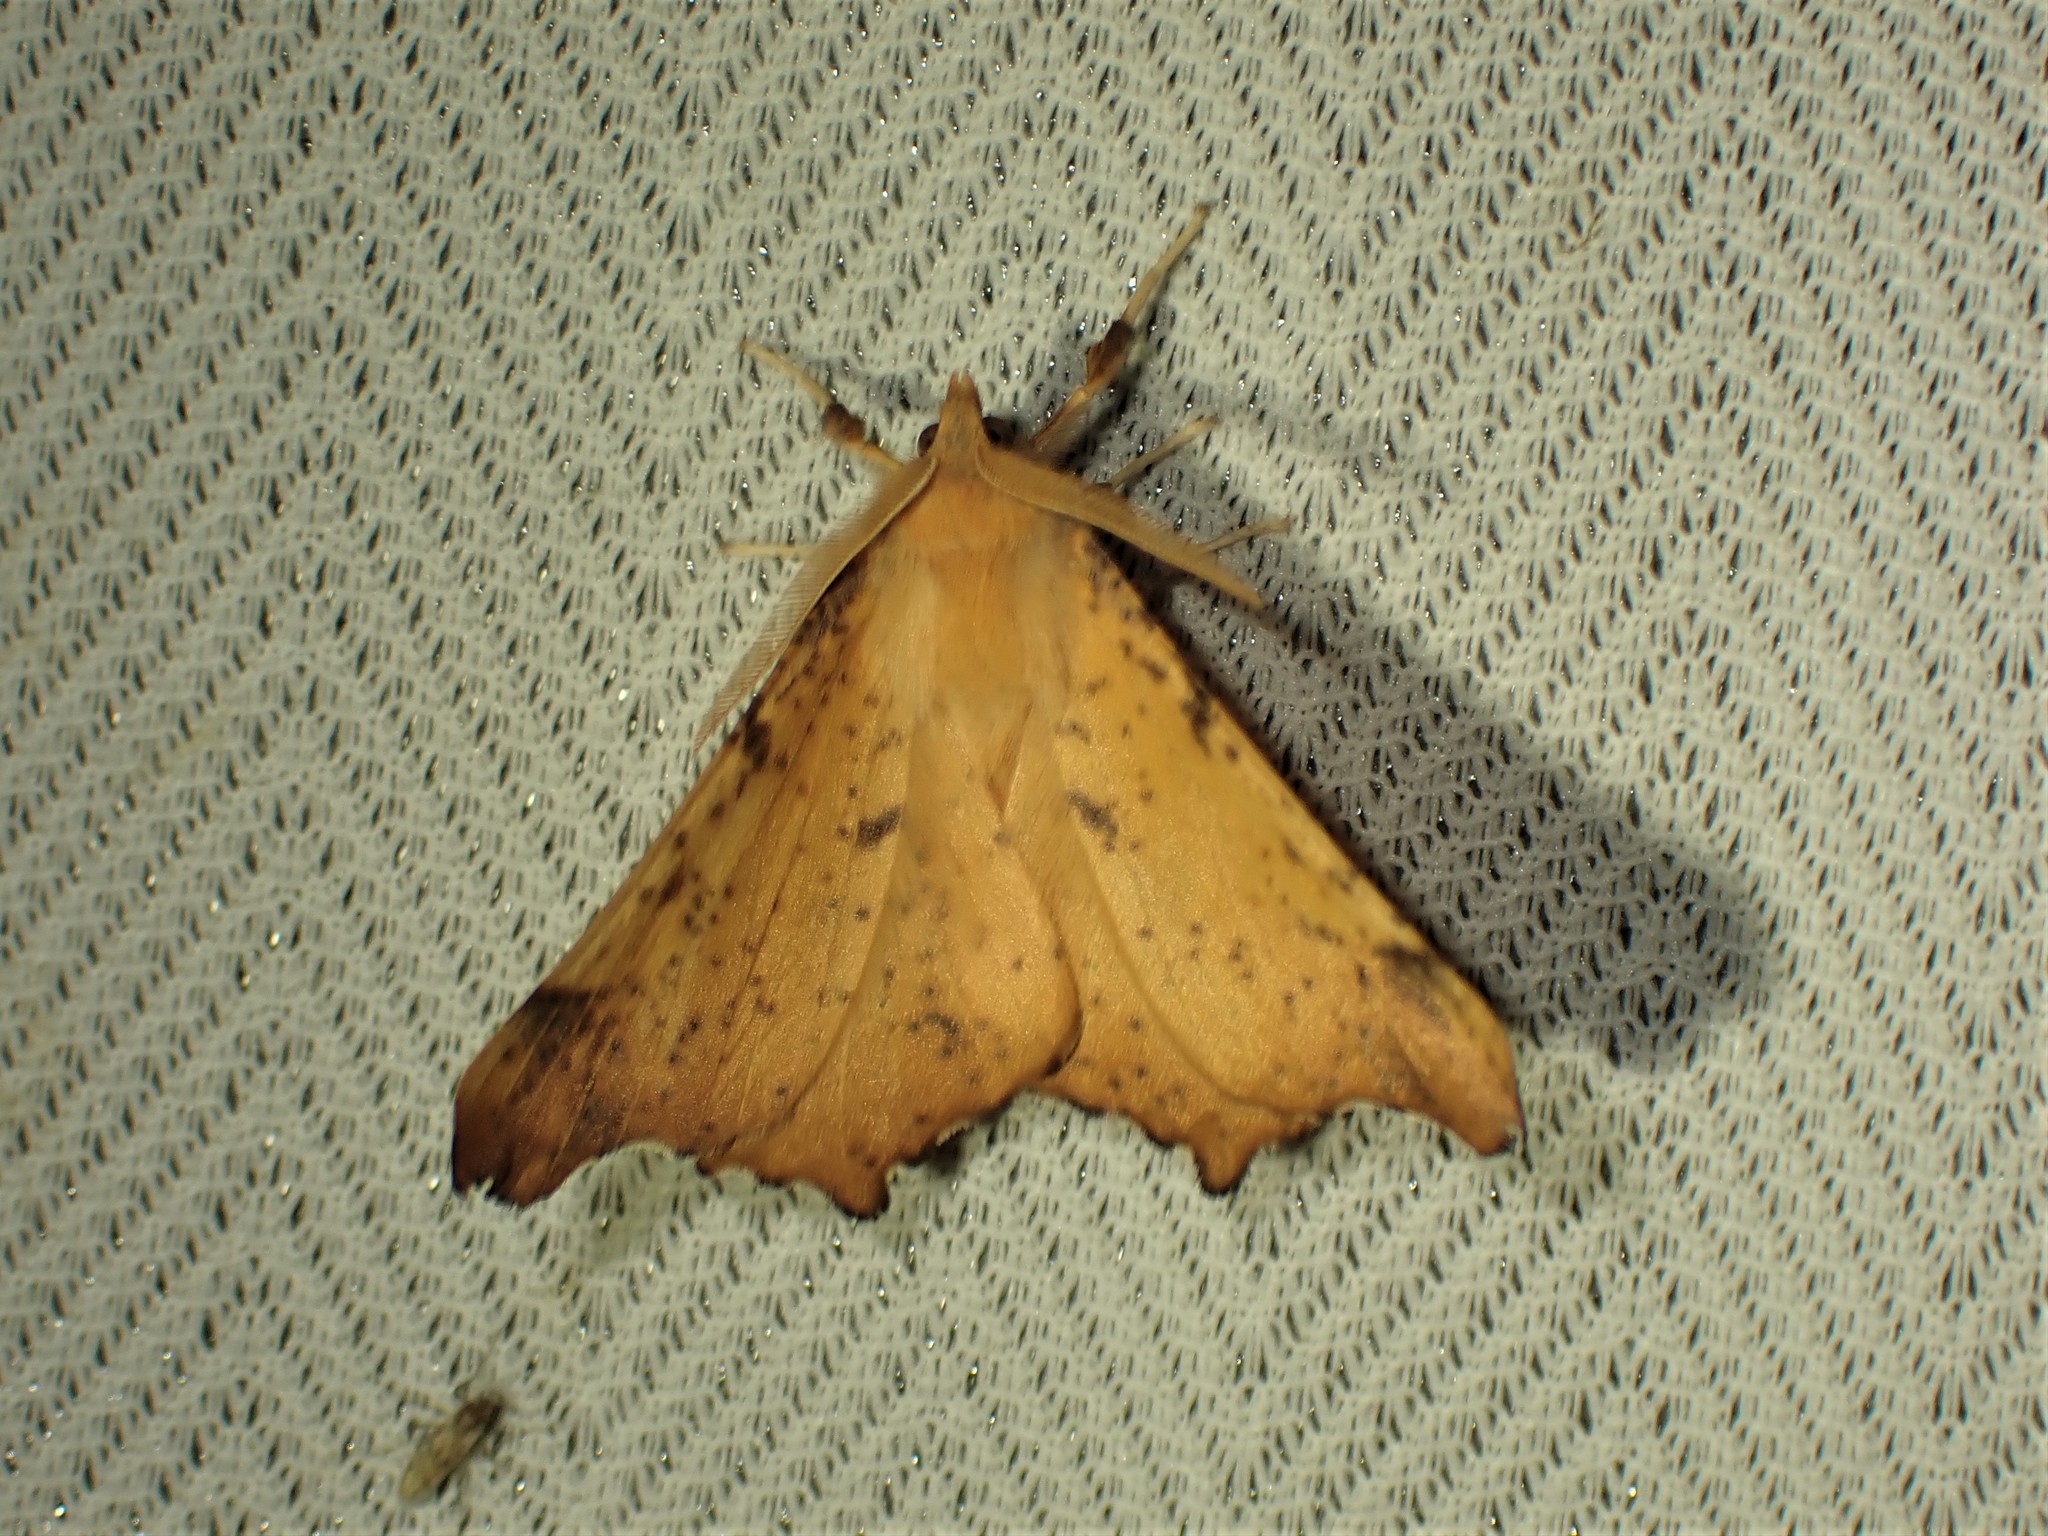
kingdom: Animalia
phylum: Arthropoda
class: Insecta
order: Lepidoptera
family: Geometridae
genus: Ennomos
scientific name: Ennomos magnaria
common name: Maple spanworm
